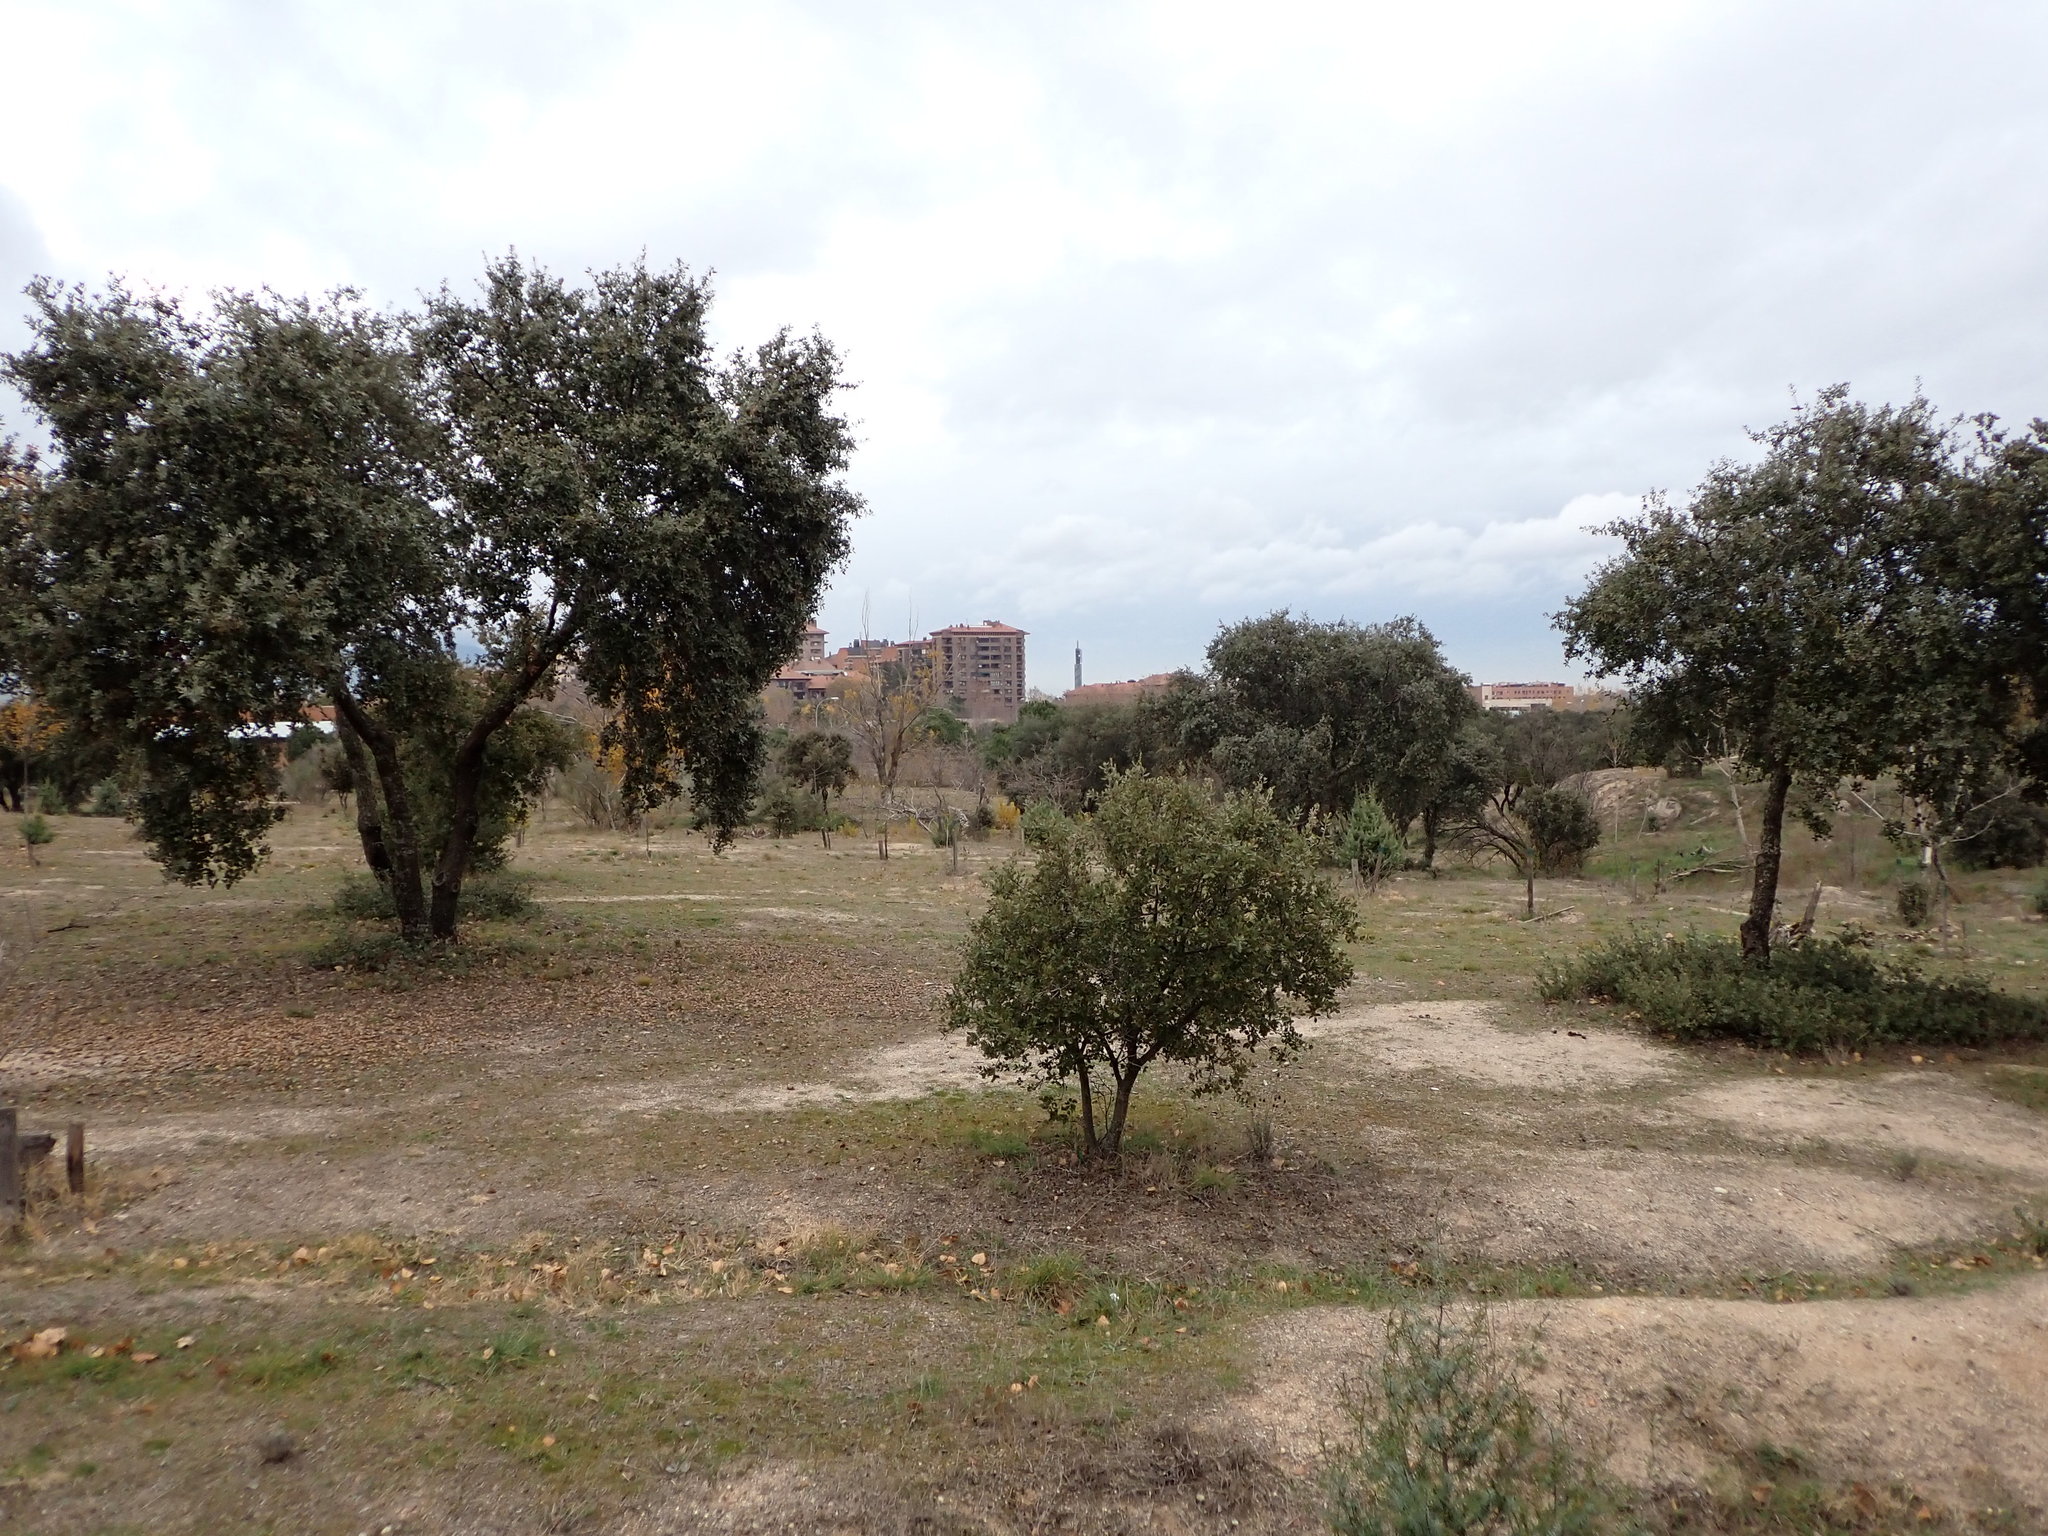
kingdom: Plantae
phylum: Tracheophyta
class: Magnoliopsida
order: Fagales
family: Fagaceae
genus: Quercus
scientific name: Quercus rotundifolia
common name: Holm oak
